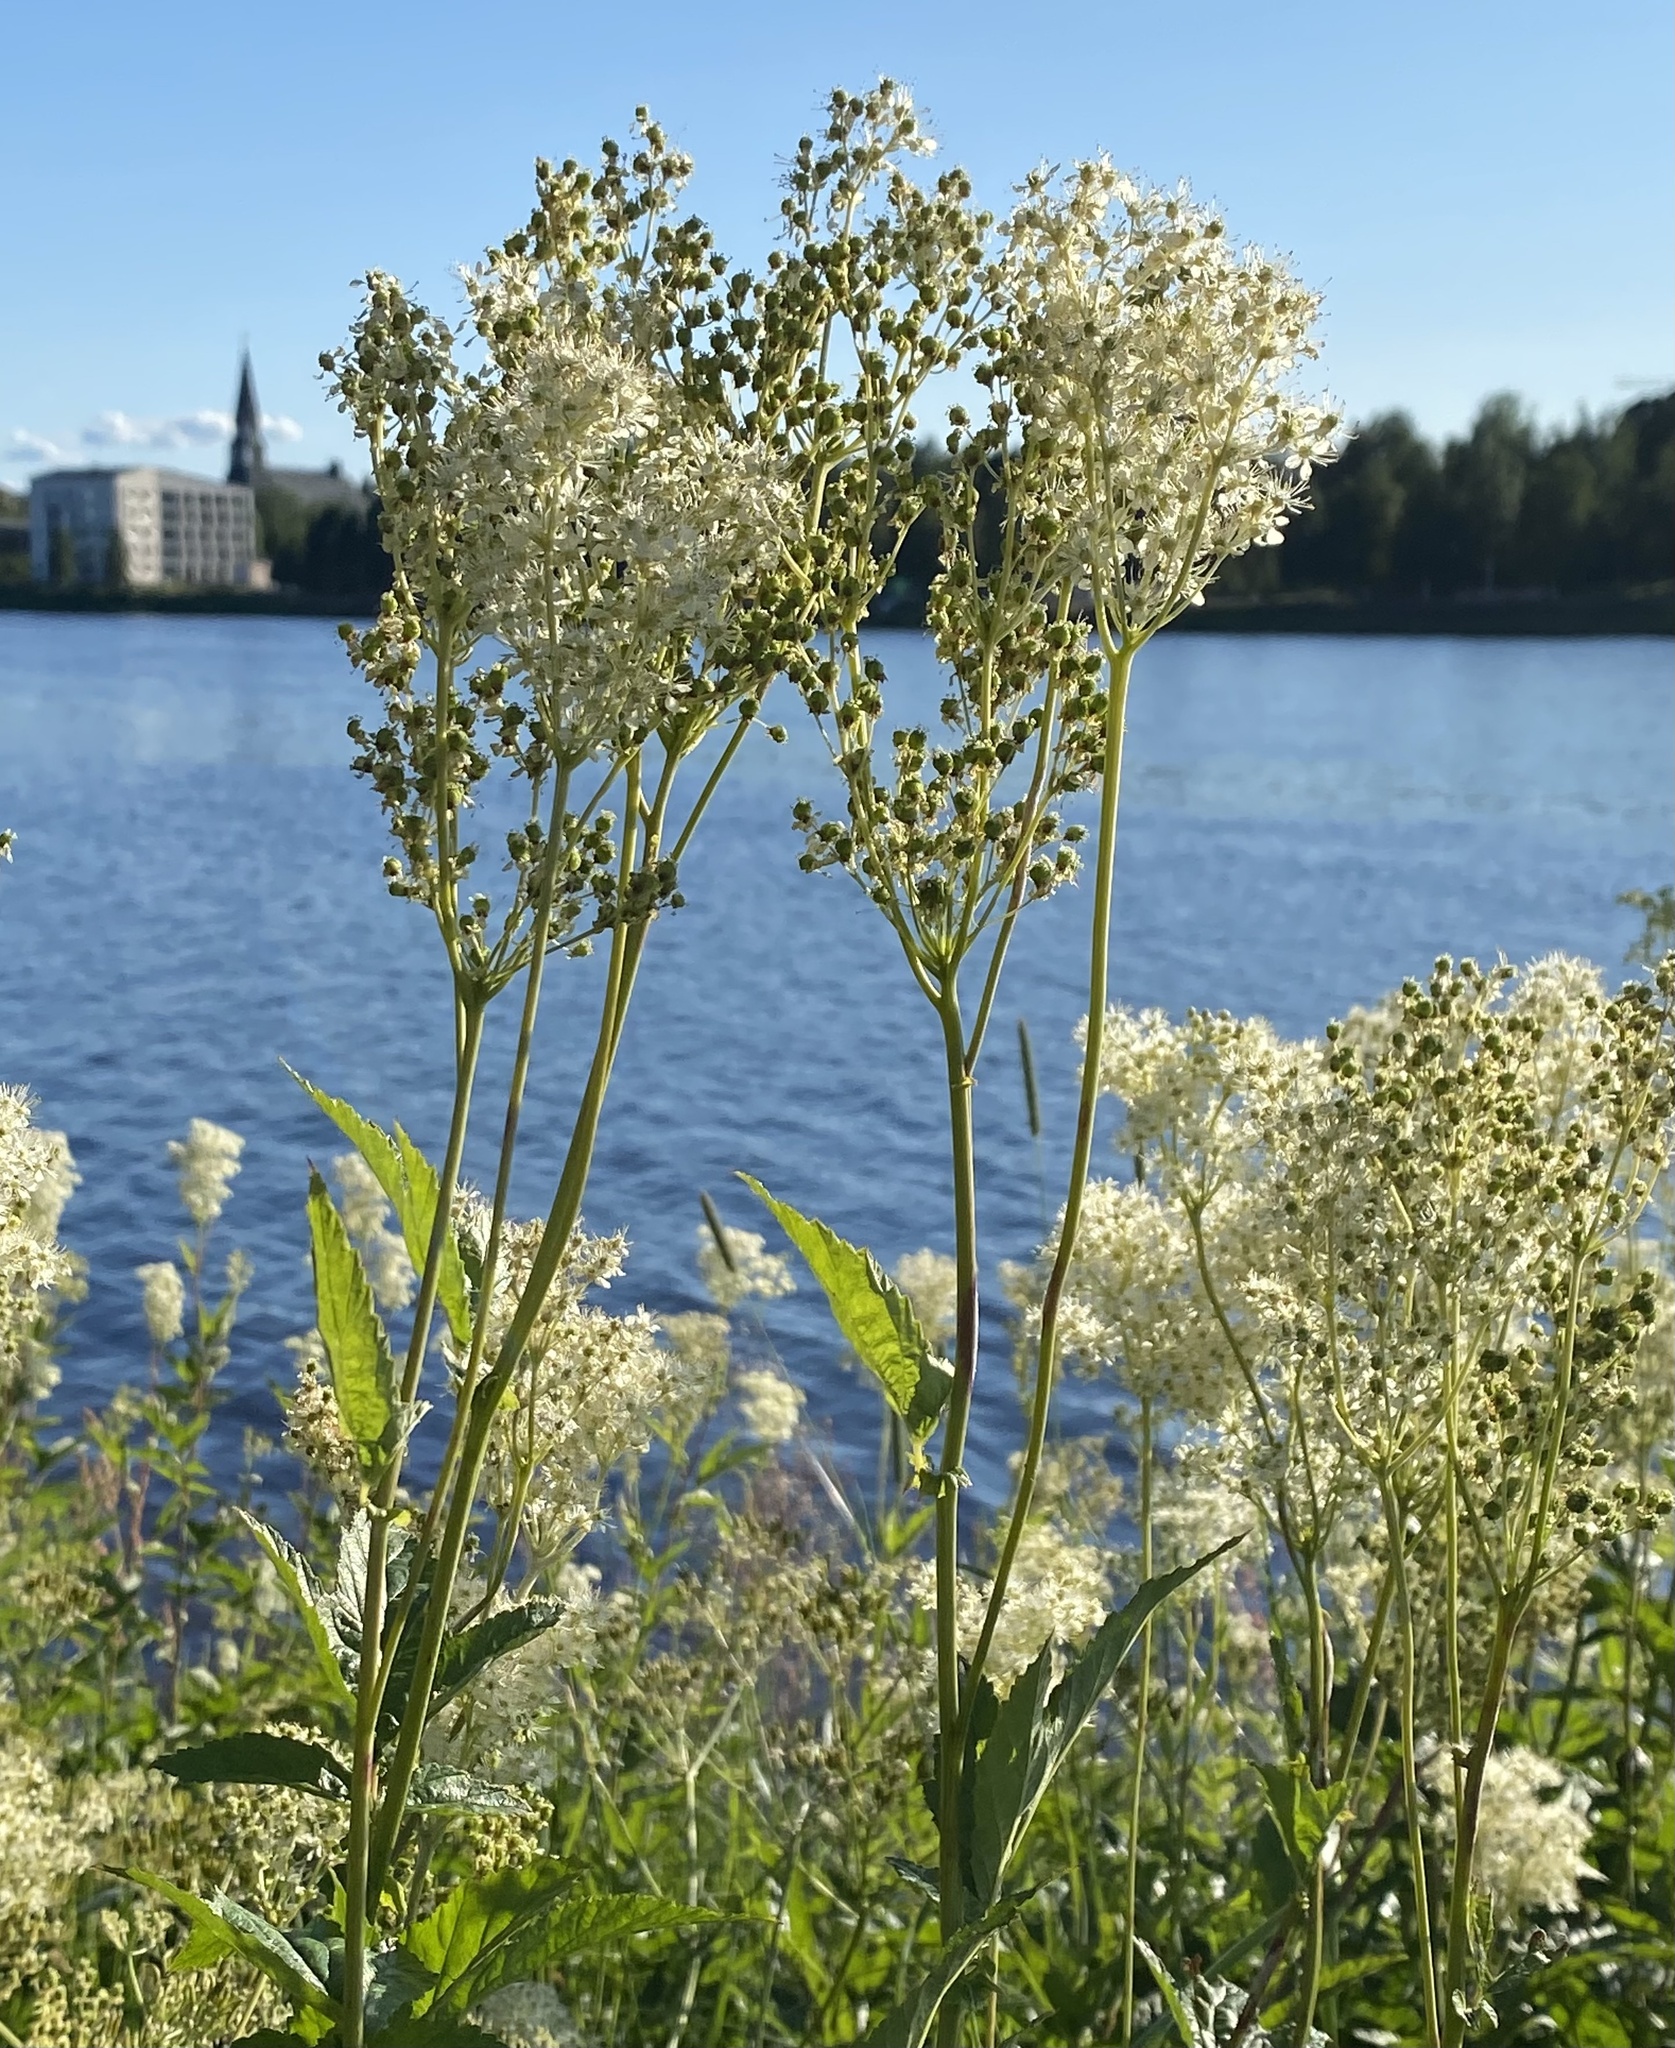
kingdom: Plantae
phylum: Tracheophyta
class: Magnoliopsida
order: Rosales
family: Rosaceae
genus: Filipendula
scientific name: Filipendula ulmaria
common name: Meadowsweet
